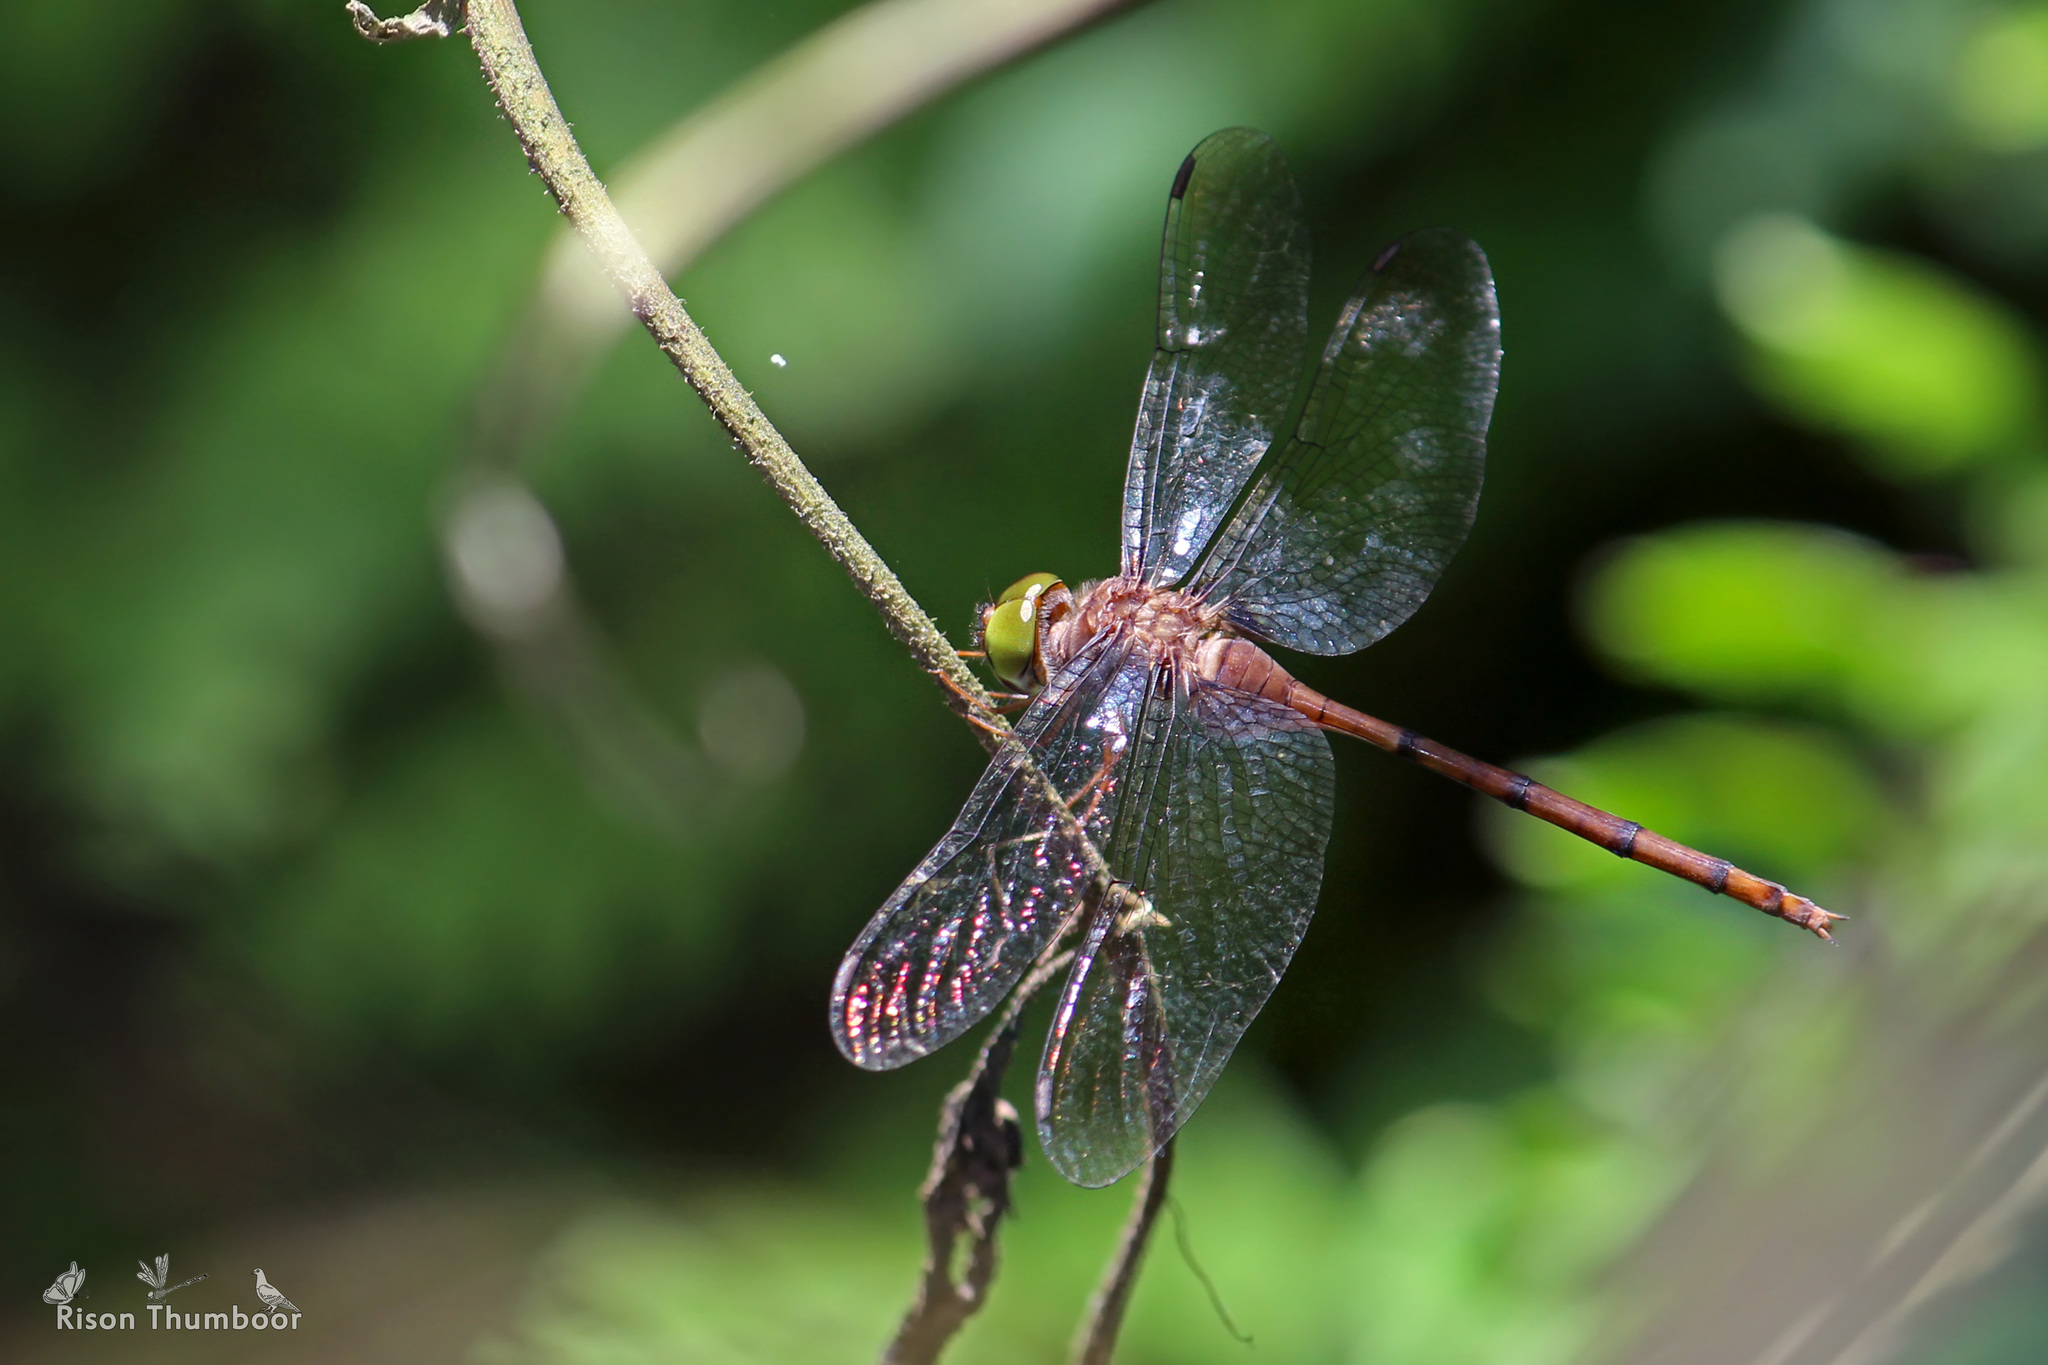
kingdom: Animalia
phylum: Arthropoda
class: Insecta
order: Odonata
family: Libellulidae
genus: Zyxomma
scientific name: Zyxomma petiolatum
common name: Dingy dusk-darter
